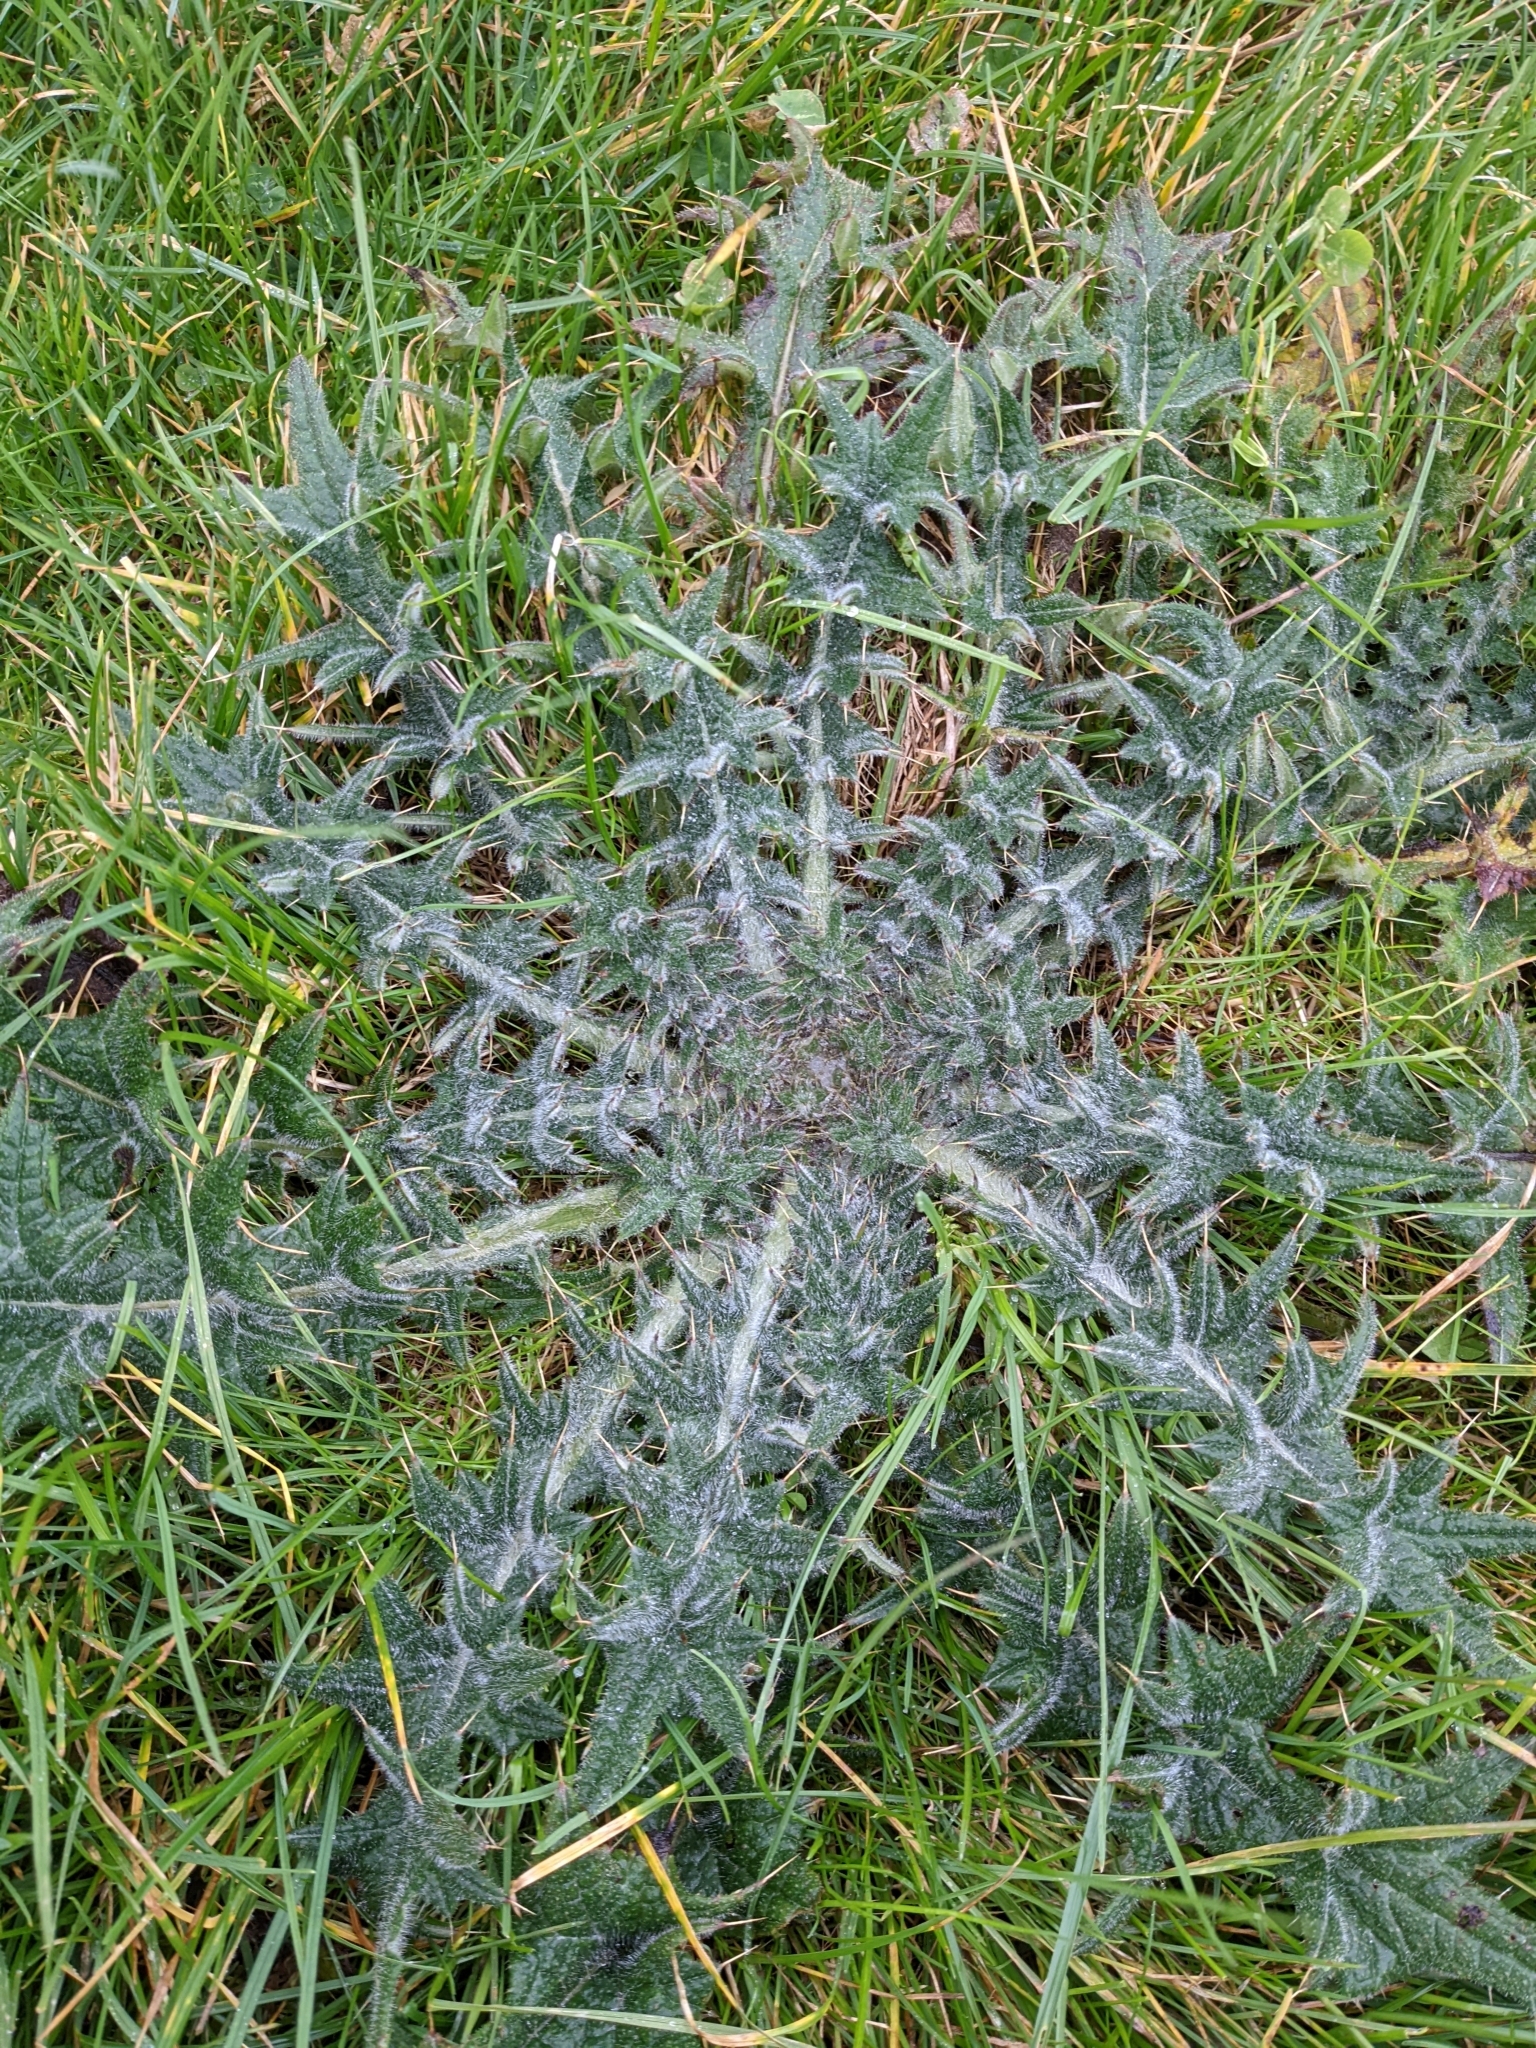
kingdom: Plantae
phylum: Tracheophyta
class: Magnoliopsida
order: Asterales
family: Asteraceae
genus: Cirsium
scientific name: Cirsium vulgare
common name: Bull thistle
